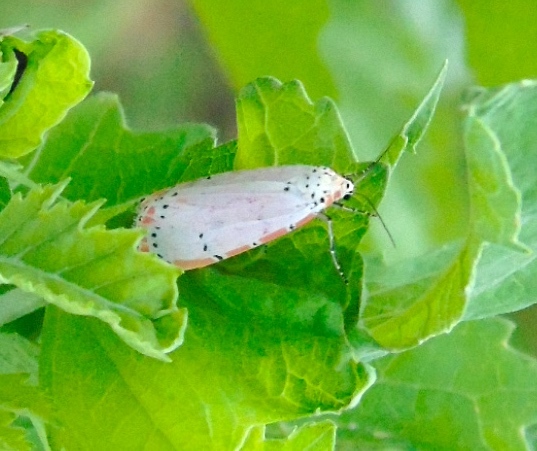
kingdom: Animalia
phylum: Arthropoda
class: Insecta
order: Lepidoptera
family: Erebidae
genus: Utetheisa
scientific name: Utetheisa ornatrix
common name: Beautiful utetheisa
